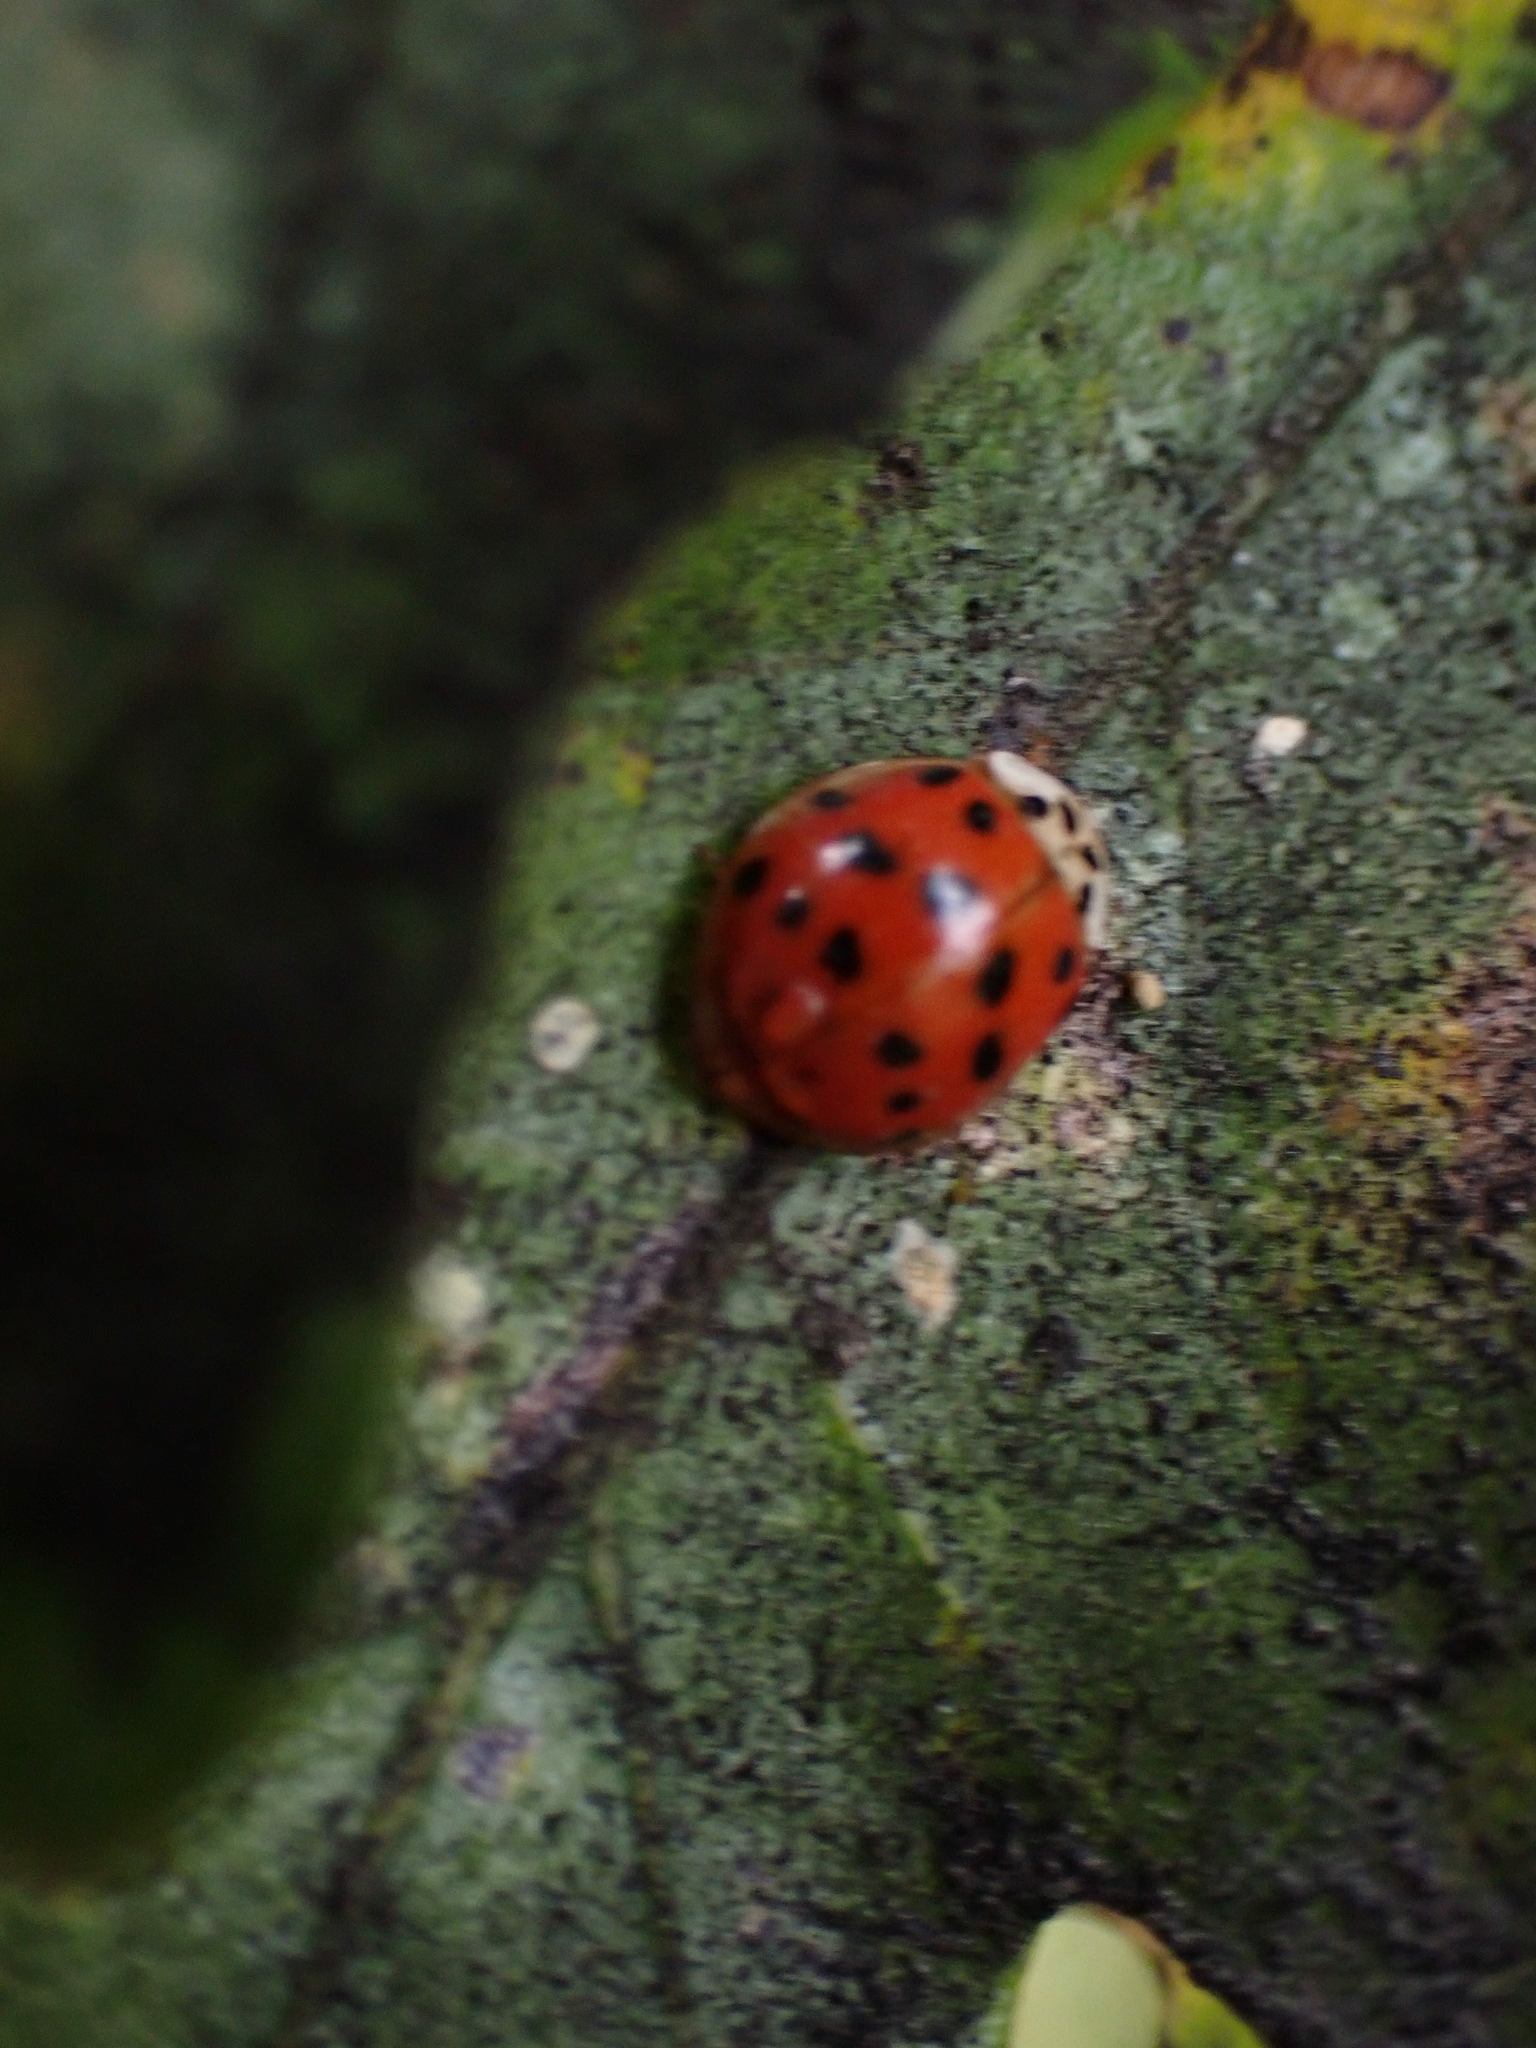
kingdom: Animalia
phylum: Arthropoda
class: Insecta
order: Coleoptera
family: Coccinellidae
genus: Harmonia
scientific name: Harmonia axyridis
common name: Harlequin ladybird
